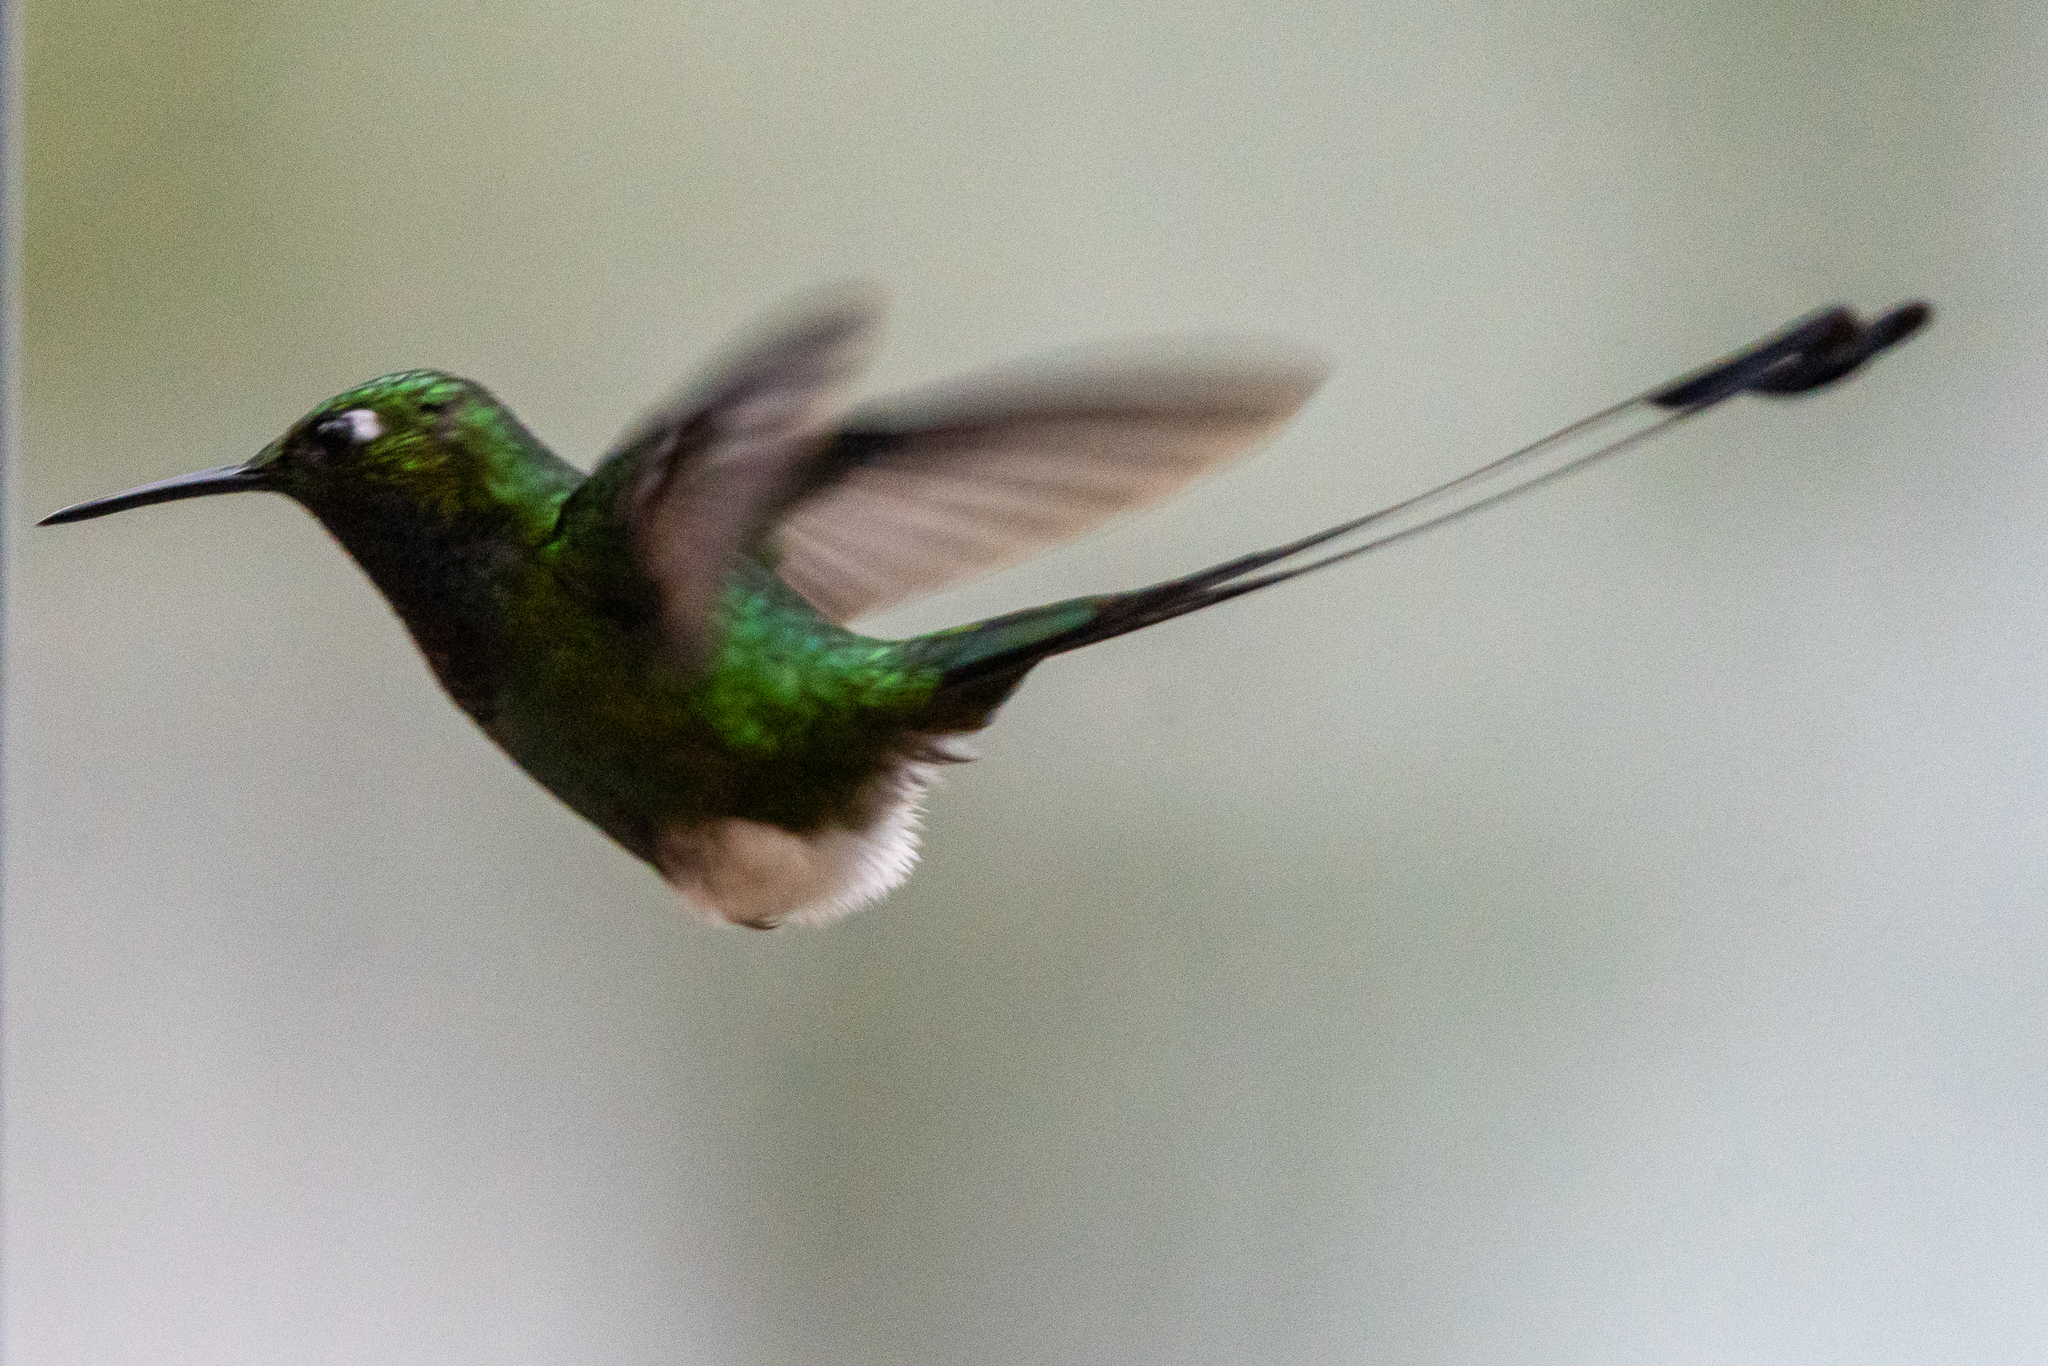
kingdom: Animalia
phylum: Chordata
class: Aves
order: Apodiformes
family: Trochilidae
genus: Ocreatus
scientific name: Ocreatus underwoodii
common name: Booted racket-tail
